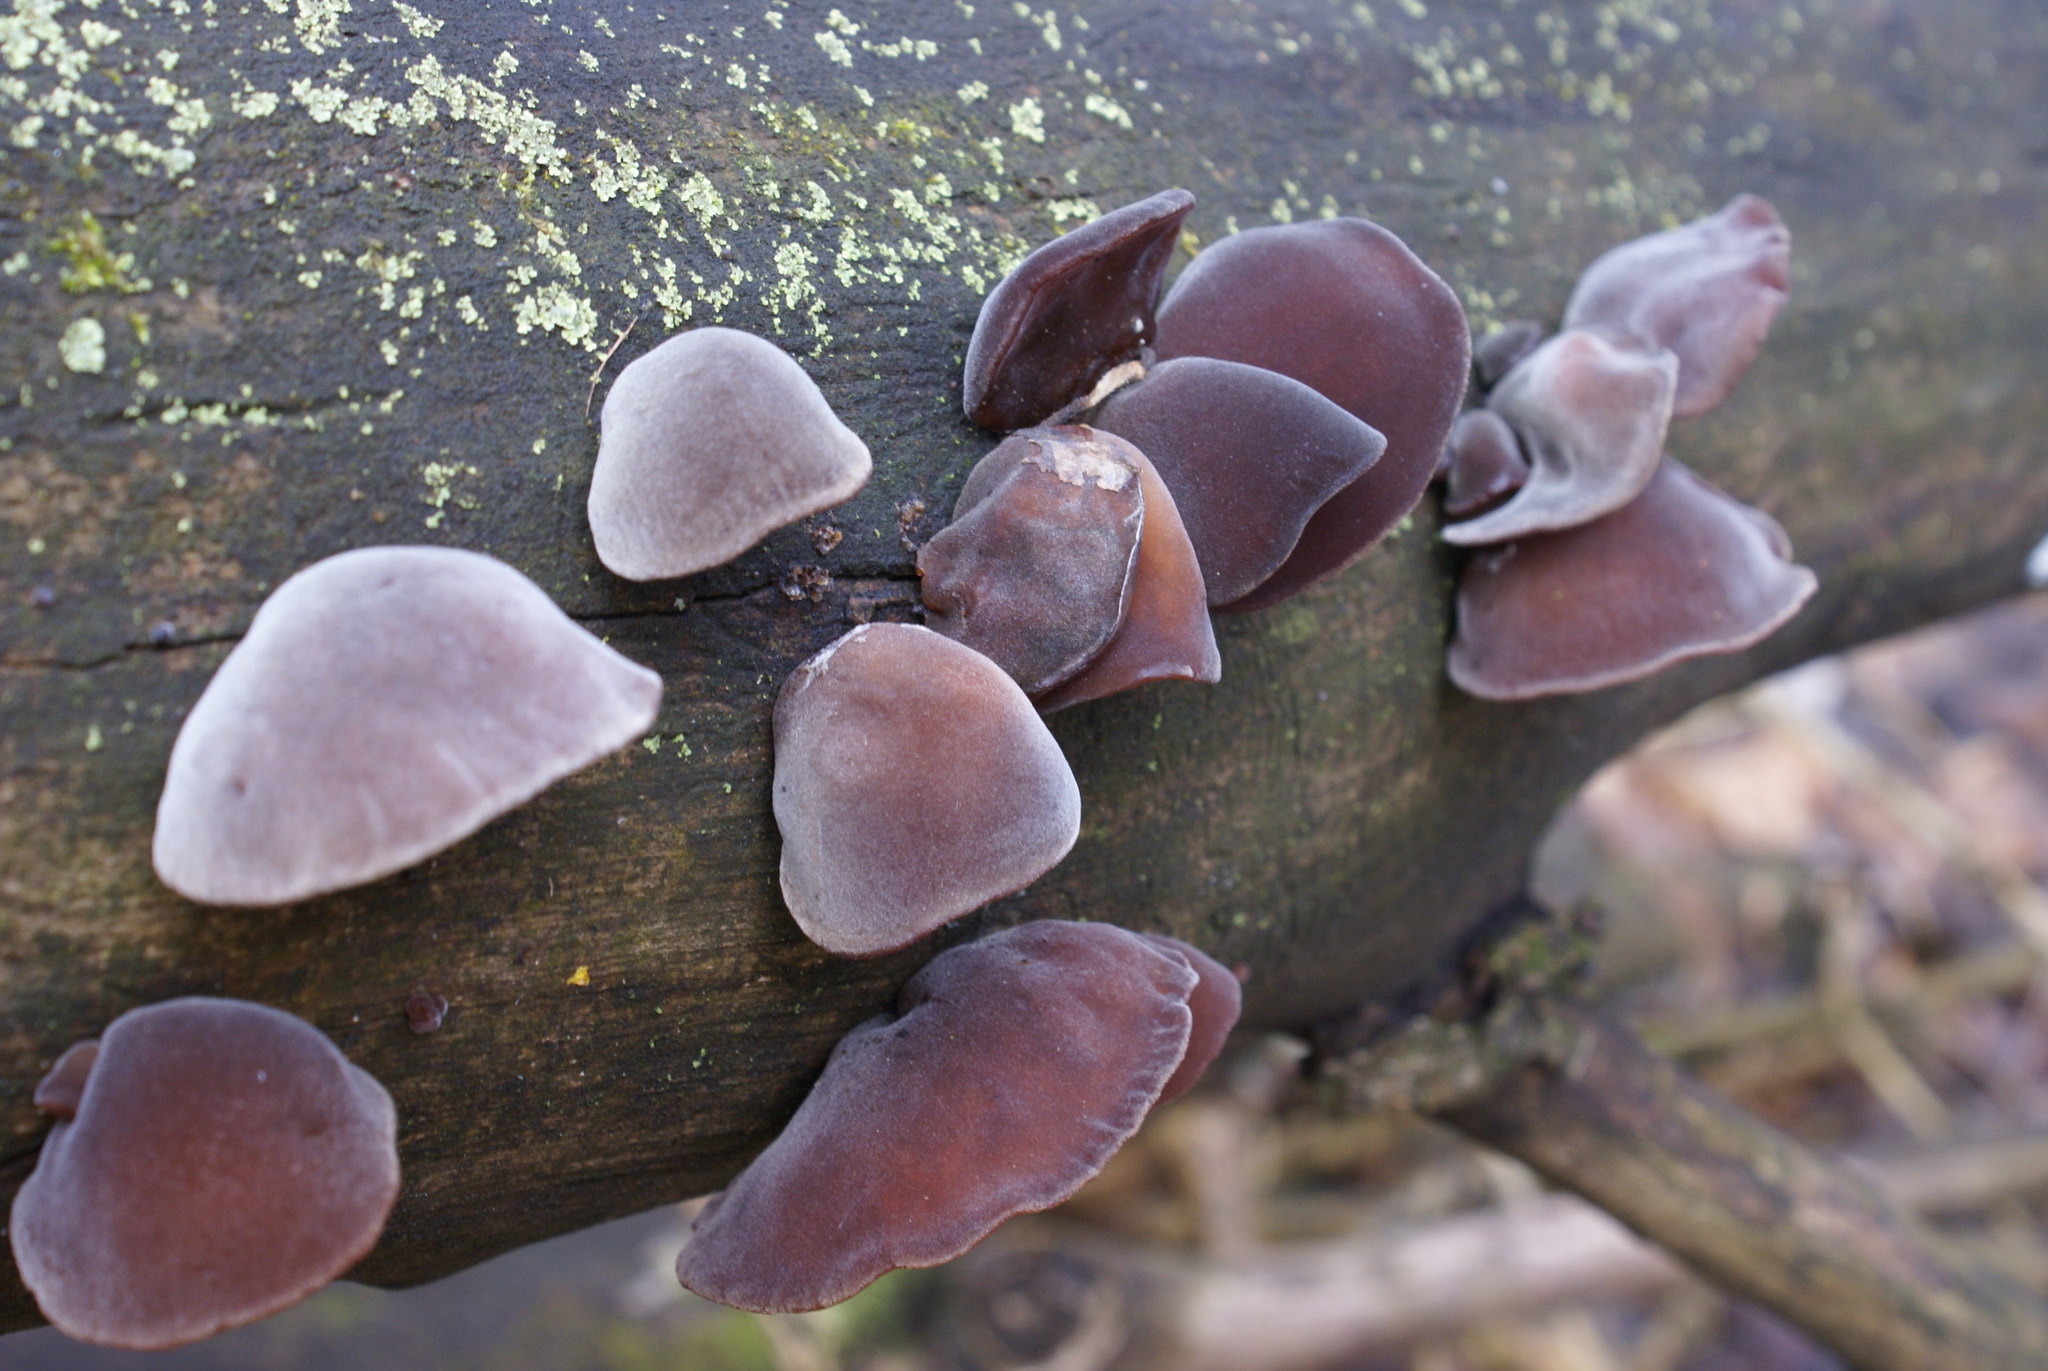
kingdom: Fungi
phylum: Basidiomycota
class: Agaricomycetes
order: Auriculariales
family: Auriculariaceae
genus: Auricularia
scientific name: Auricularia auricula-judae
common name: Jelly ear
